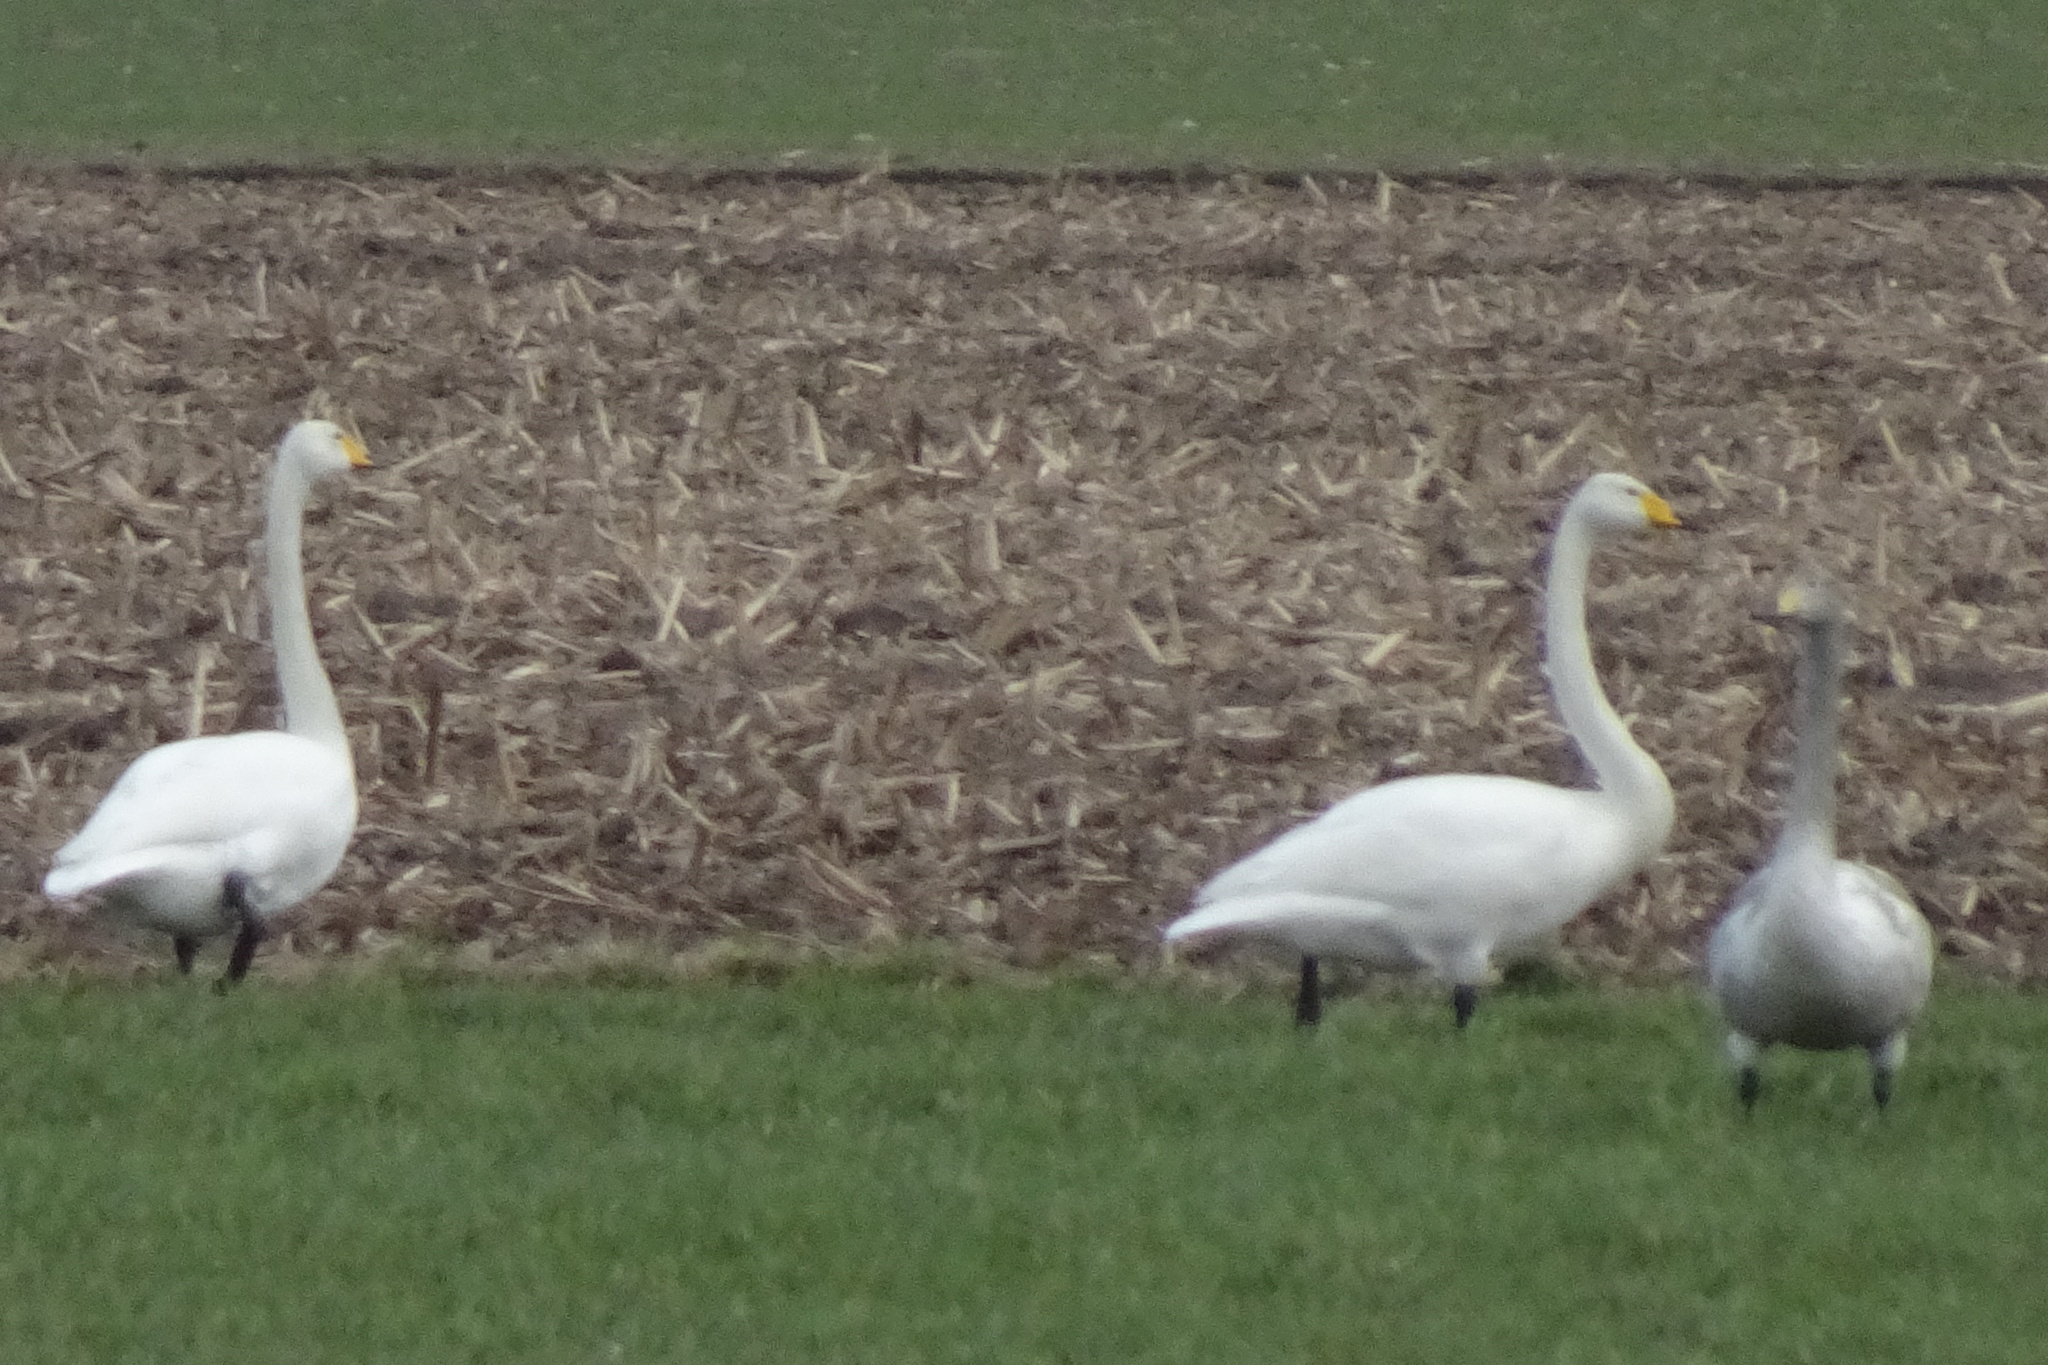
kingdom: Animalia
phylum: Chordata
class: Aves
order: Anseriformes
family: Anatidae
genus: Cygnus
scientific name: Cygnus cygnus
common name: Whooper swan
